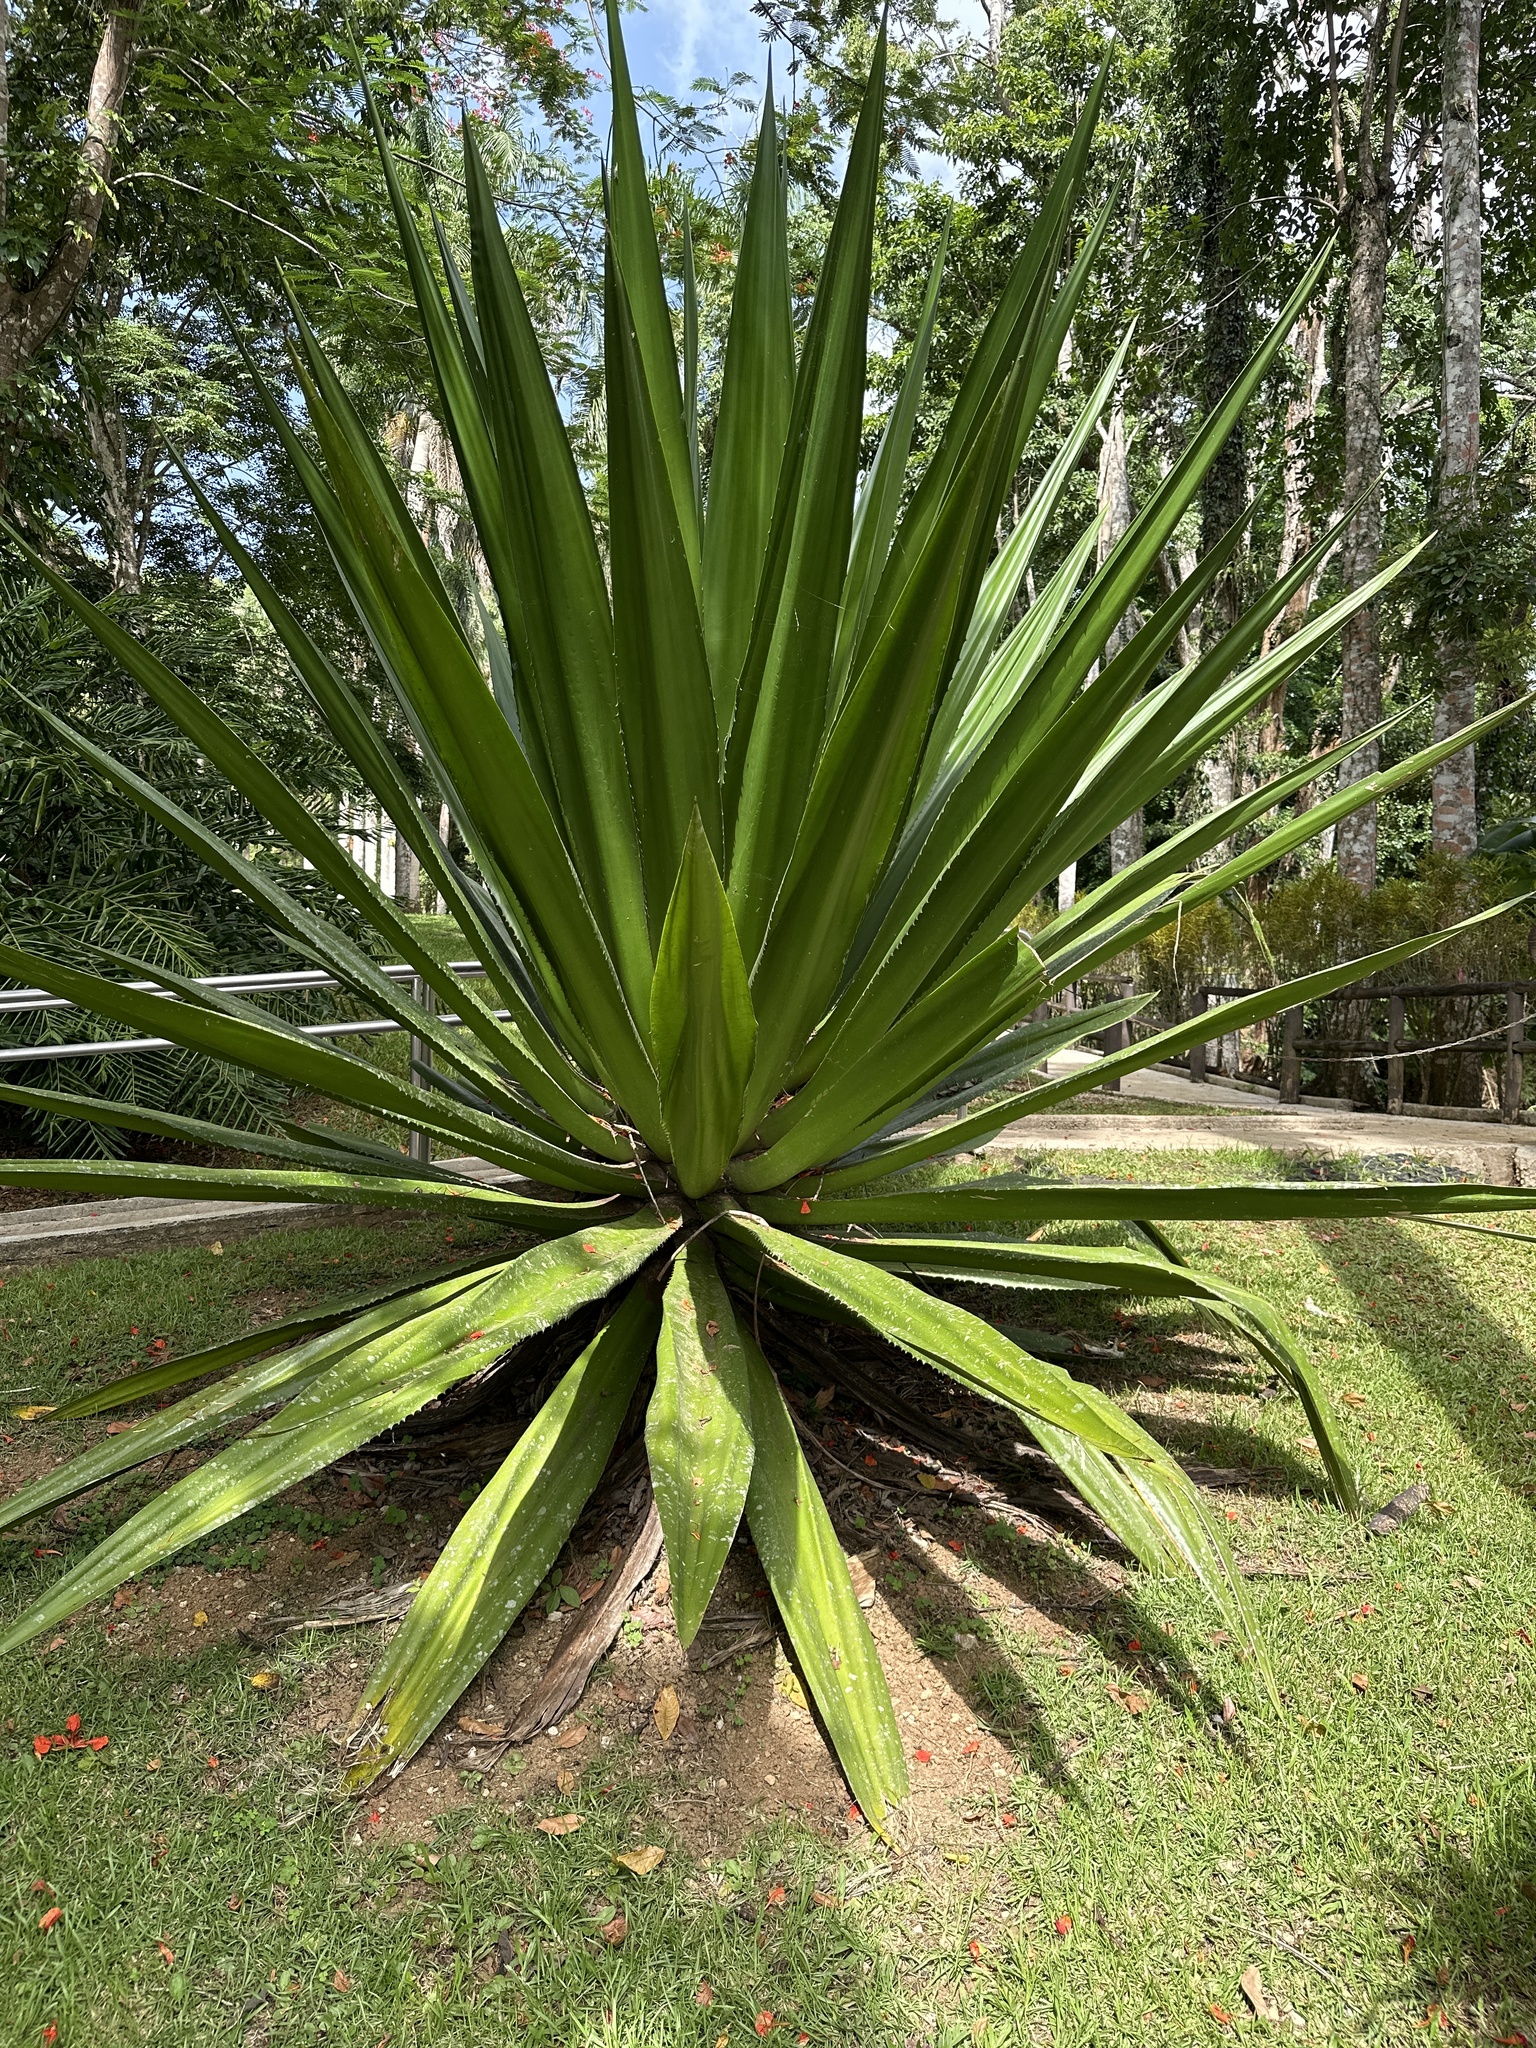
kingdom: Plantae
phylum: Tracheophyta
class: Liliopsida
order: Asparagales
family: Asparagaceae
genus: Furcraea
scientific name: Furcraea tuberosa
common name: Karata
